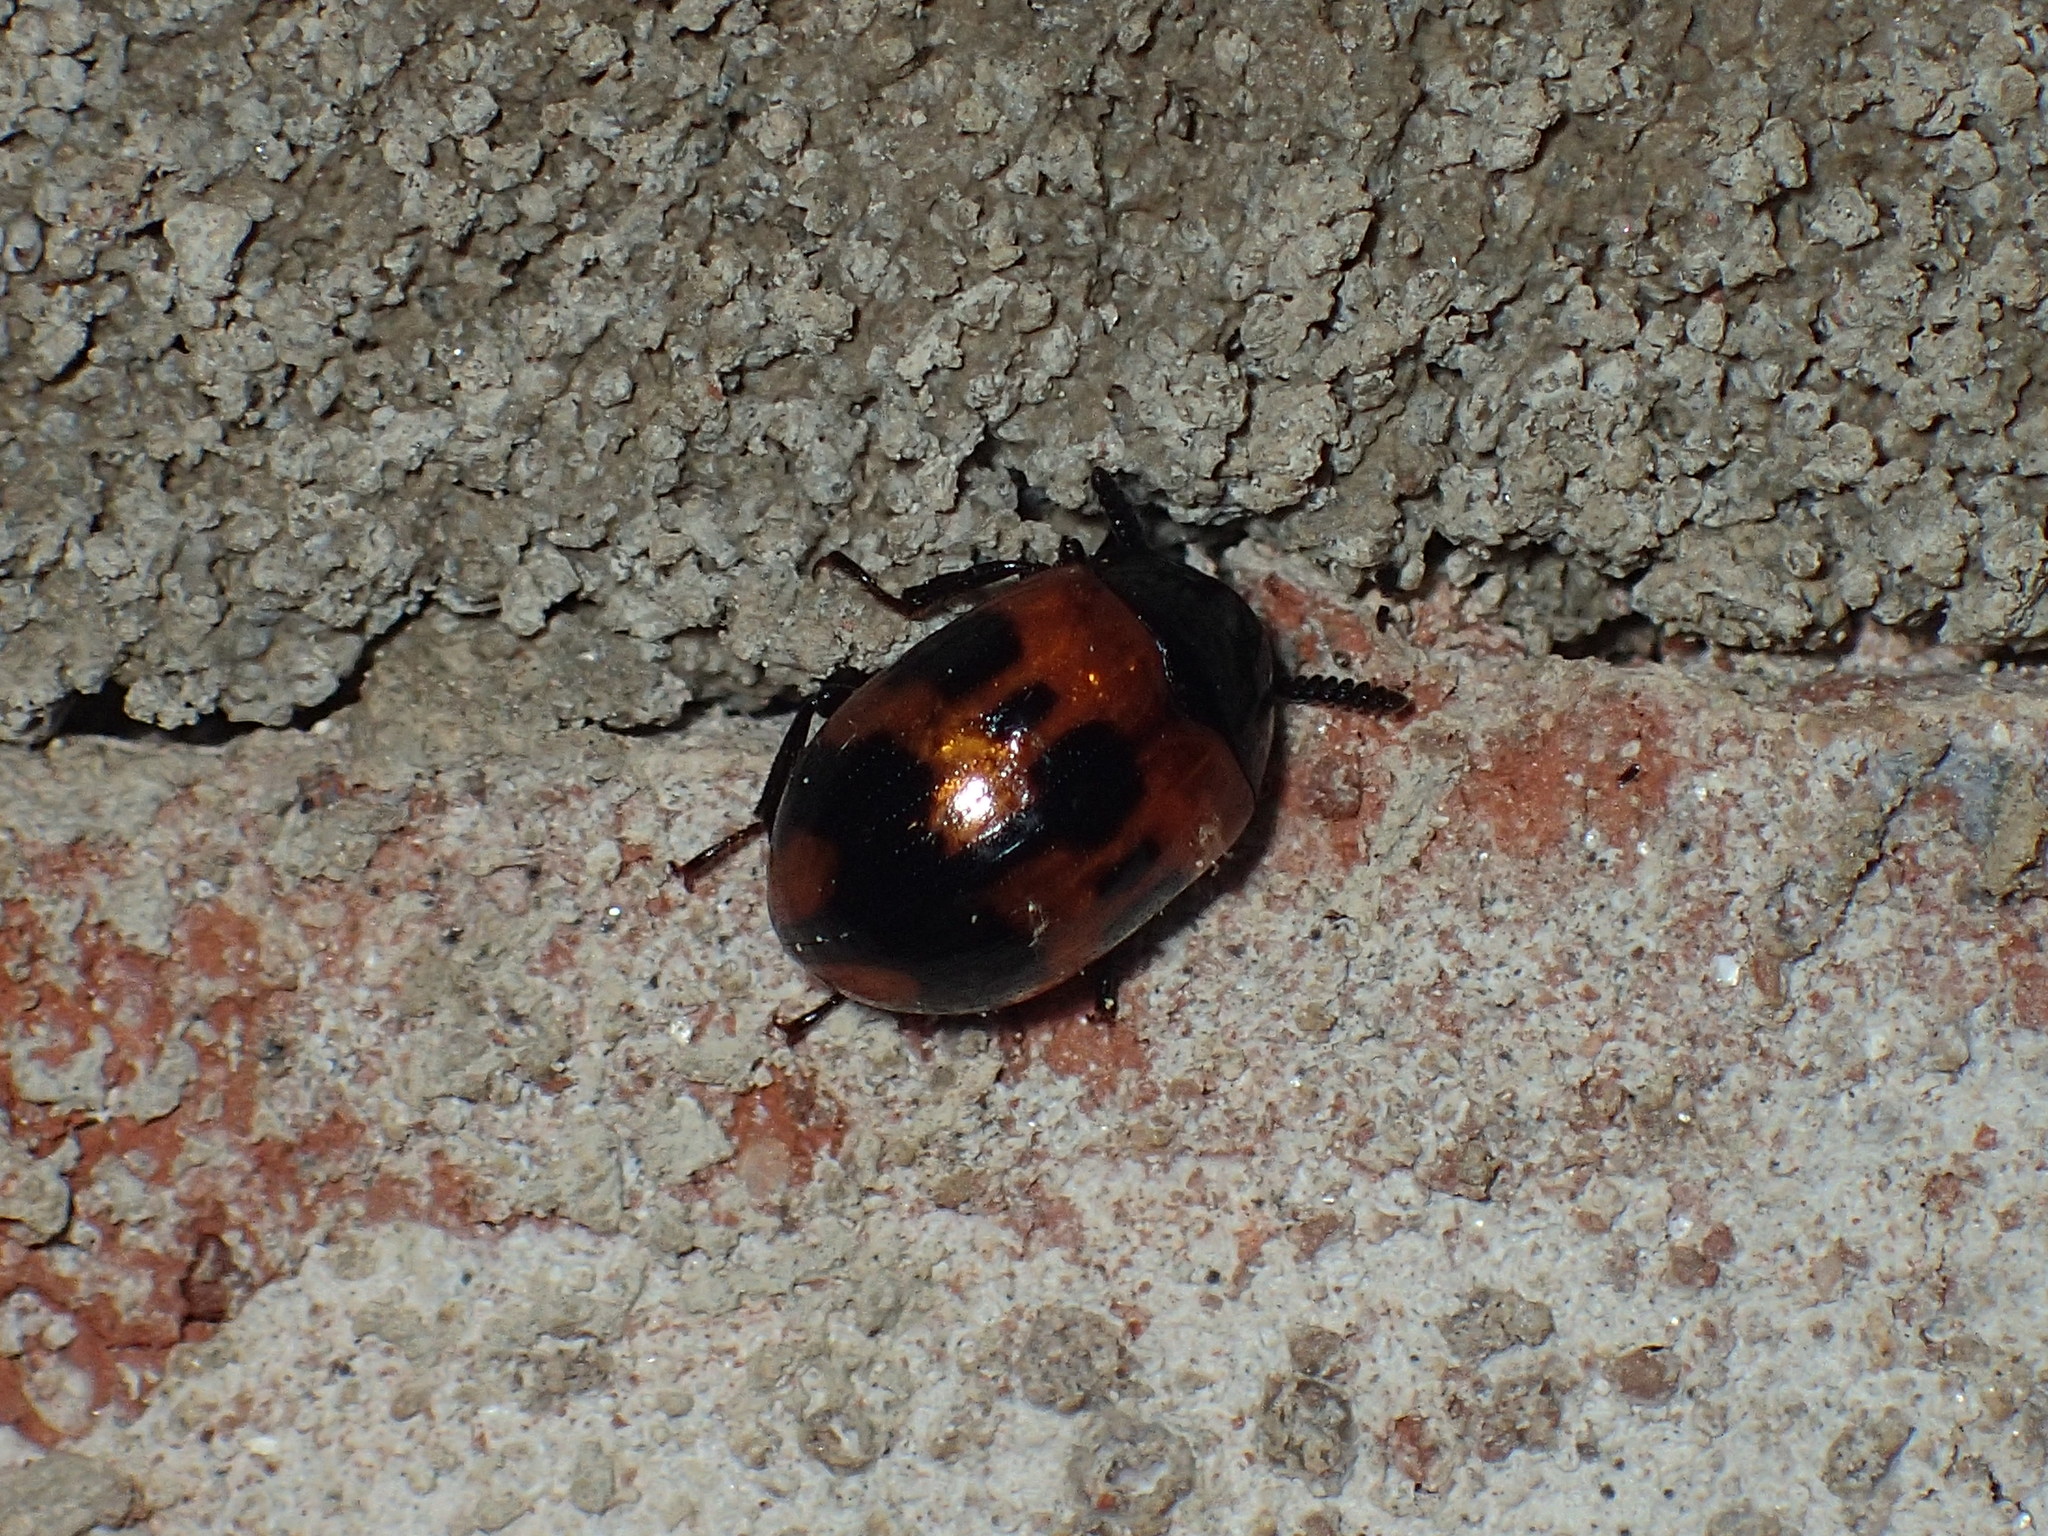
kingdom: Animalia
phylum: Arthropoda
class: Insecta
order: Coleoptera
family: Tenebrionidae
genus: Diaperis
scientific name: Diaperis nigronotata
